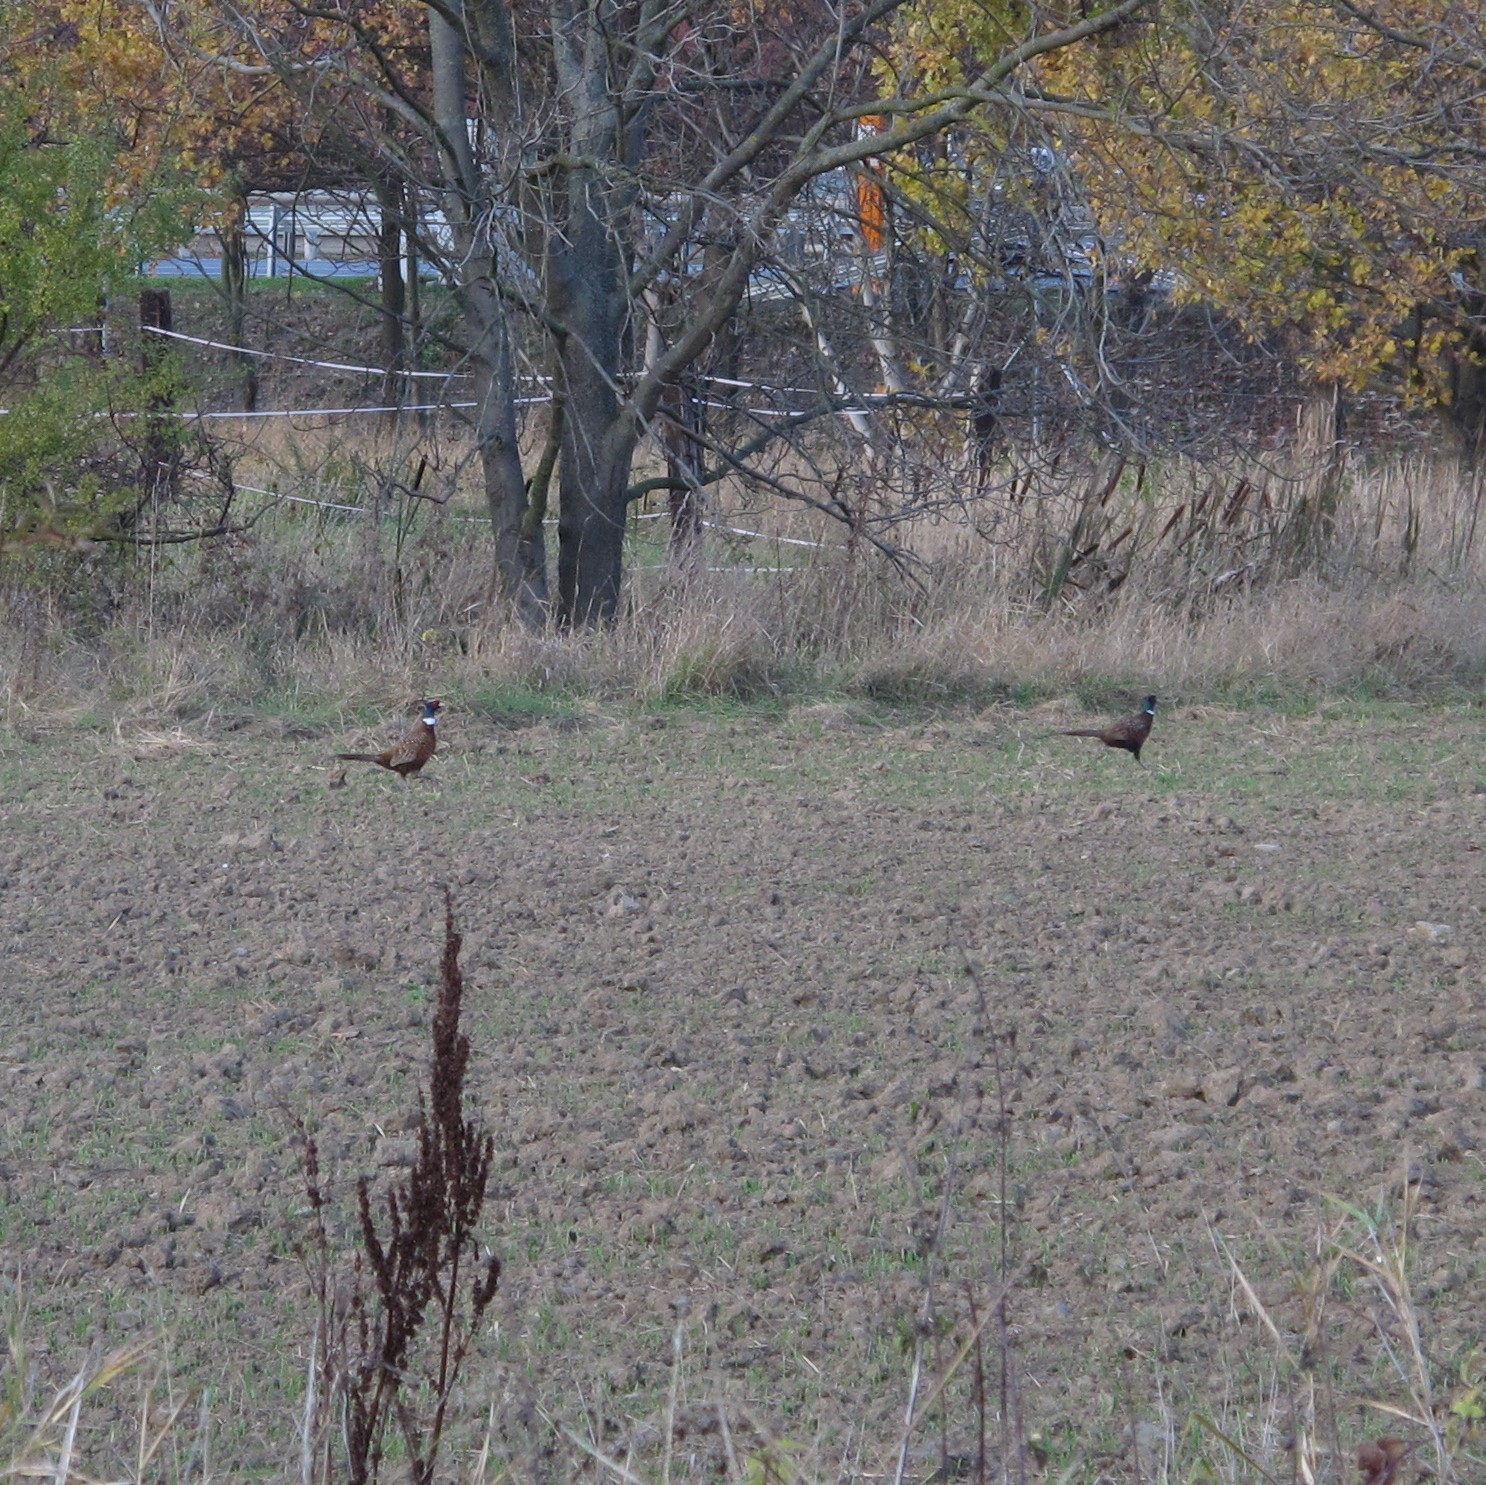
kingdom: Animalia
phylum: Chordata
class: Aves
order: Galliformes
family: Phasianidae
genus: Phasianus
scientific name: Phasianus colchicus
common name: Common pheasant
